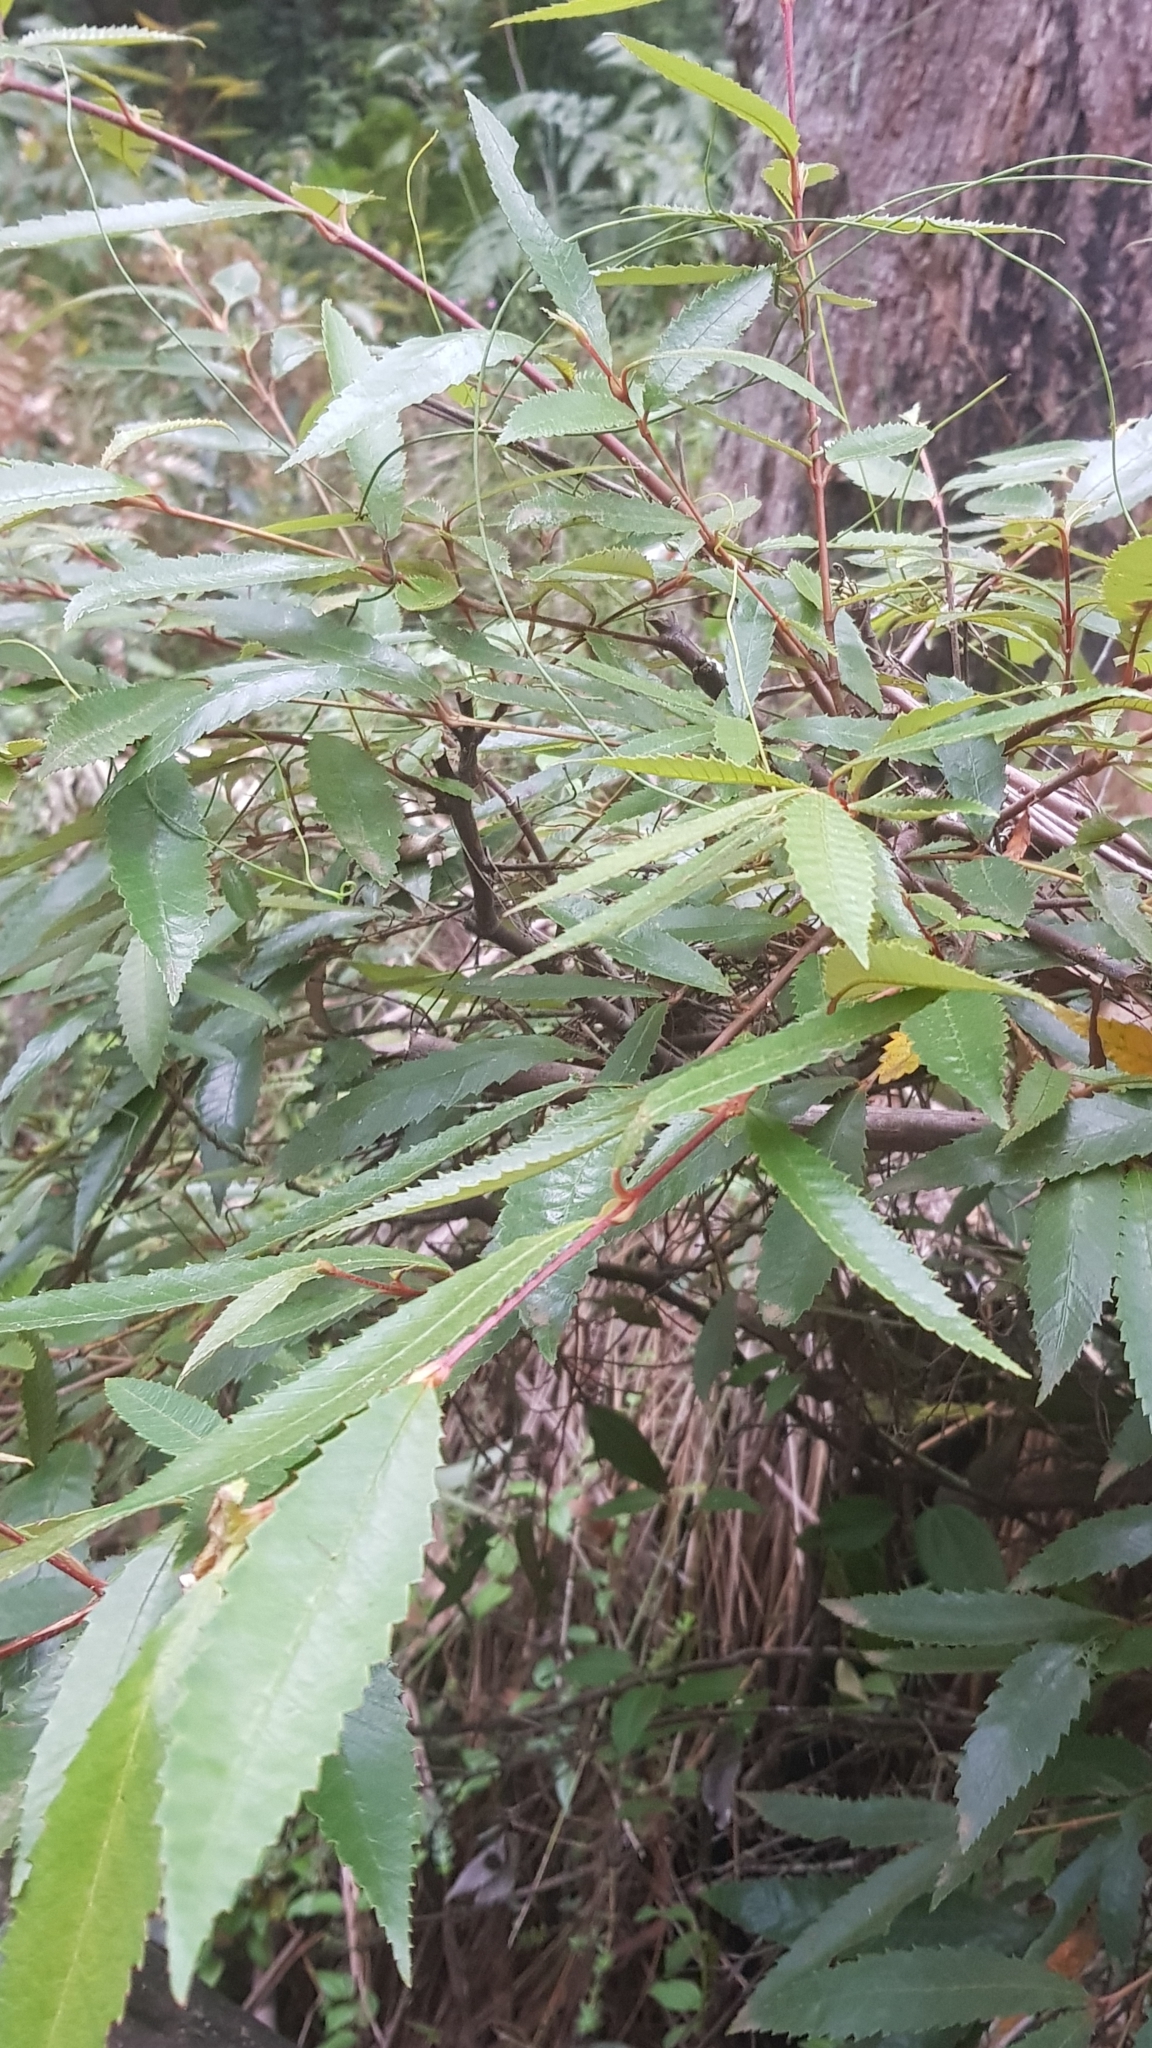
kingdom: Plantae
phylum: Tracheophyta
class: Magnoliopsida
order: Oxalidales
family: Cunoniaceae
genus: Callicoma
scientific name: Callicoma serratifolia
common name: Black wattle
